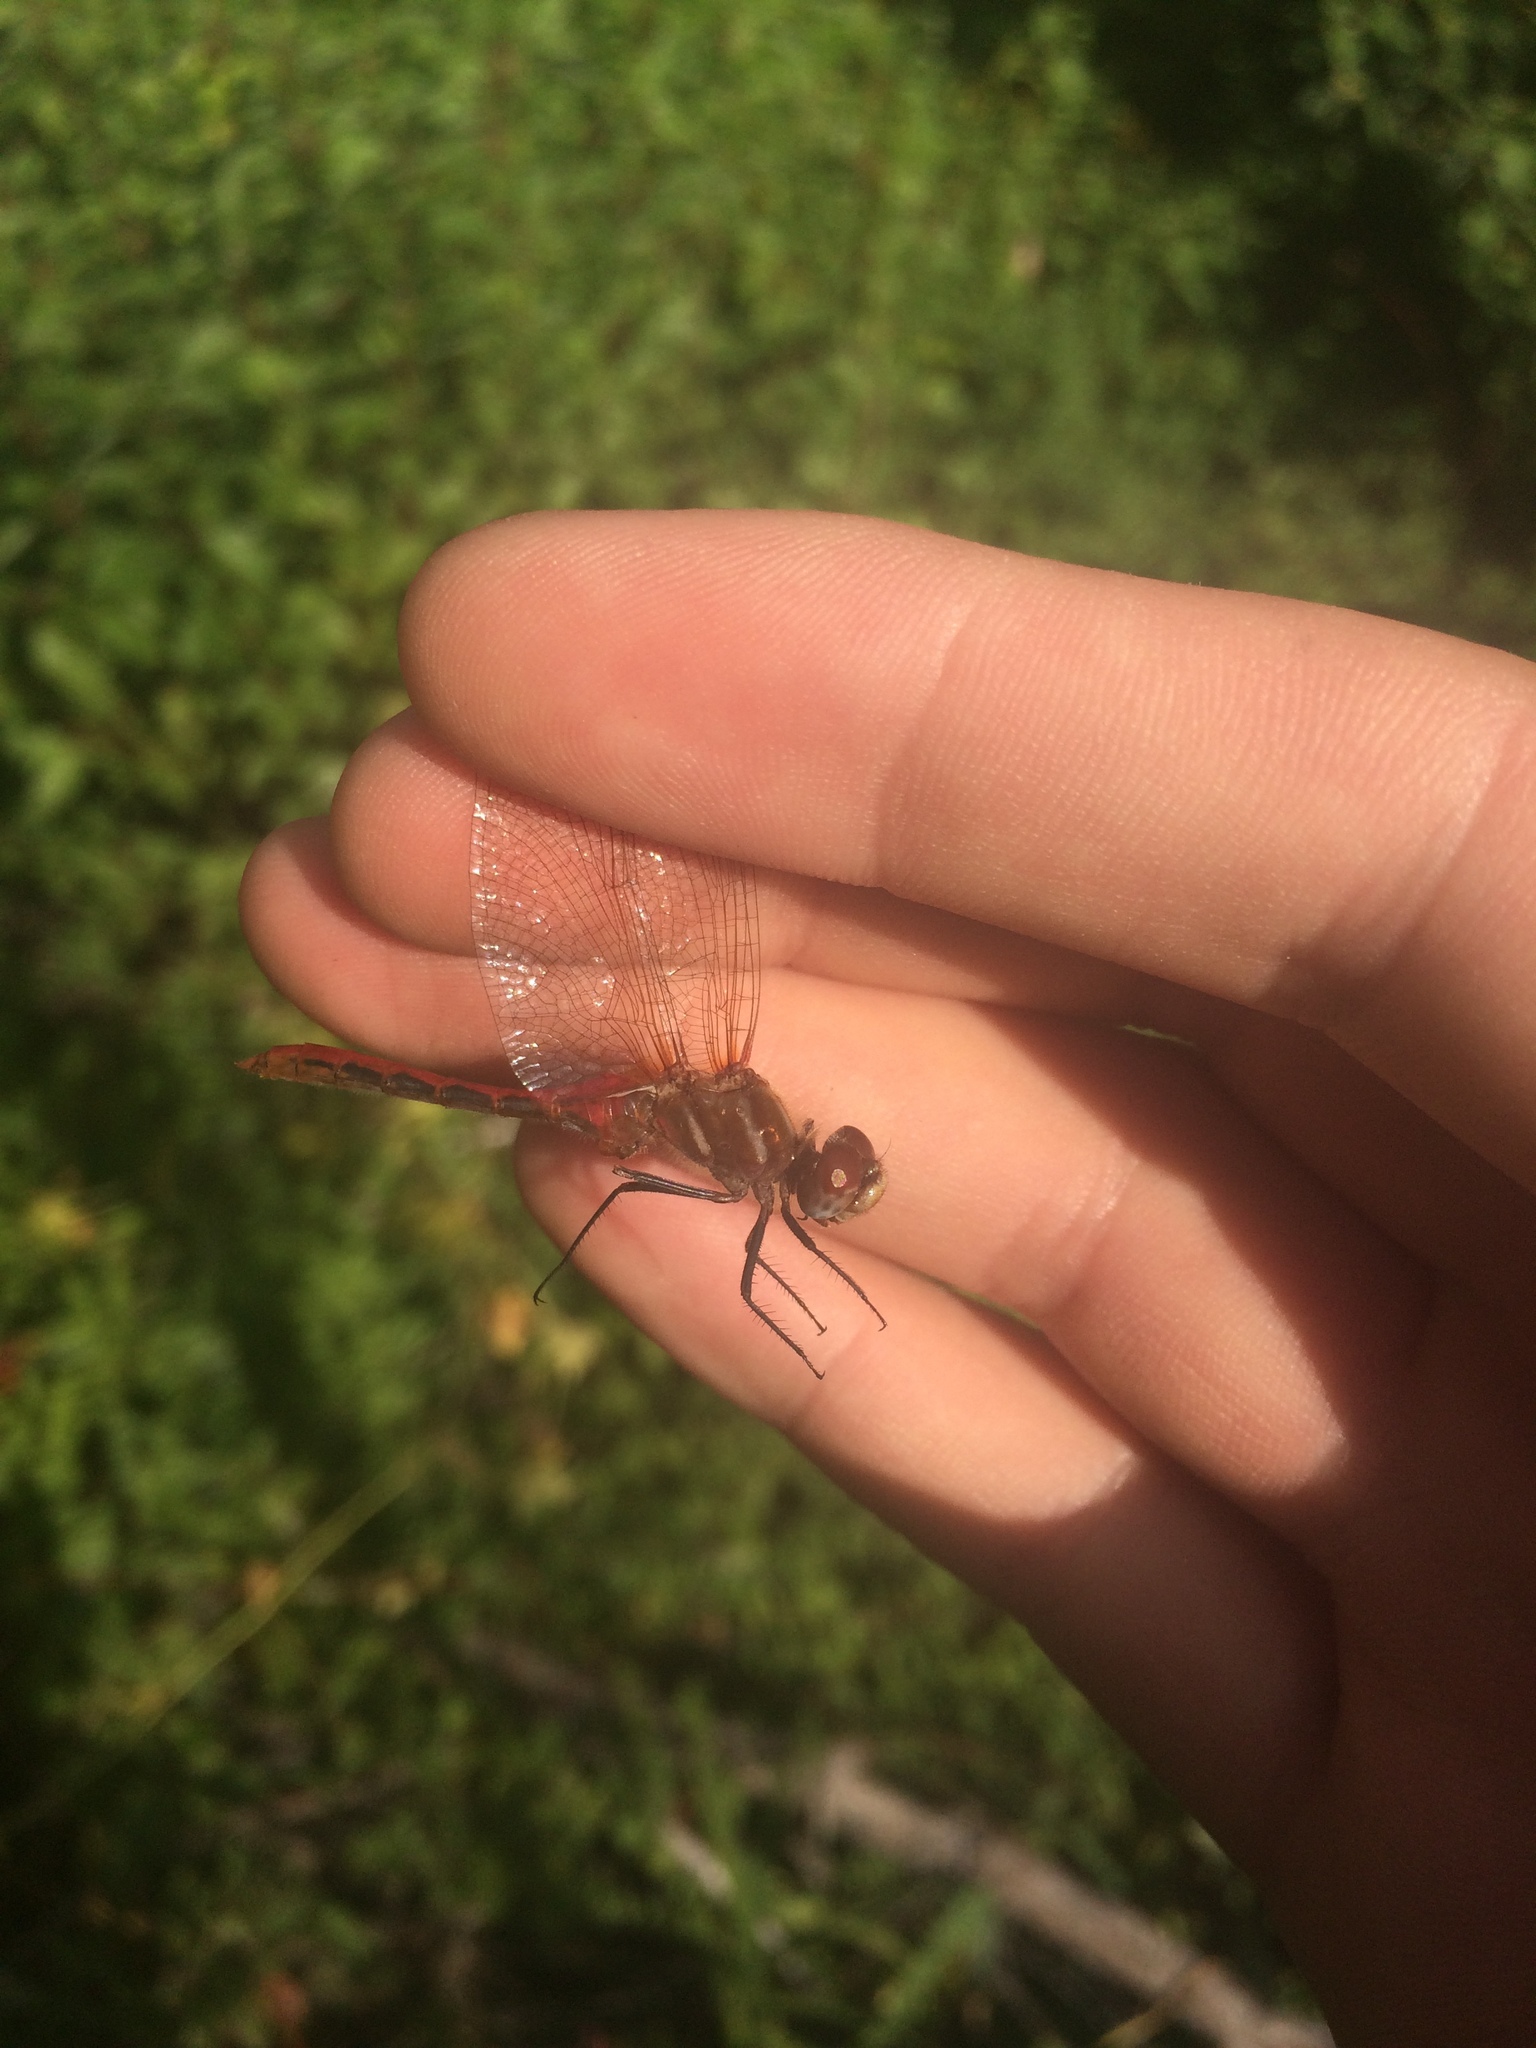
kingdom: Animalia
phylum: Arthropoda
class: Insecta
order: Odonata
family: Libellulidae
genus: Sympetrum
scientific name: Sympetrum pallipes
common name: Striped meadowhawk
